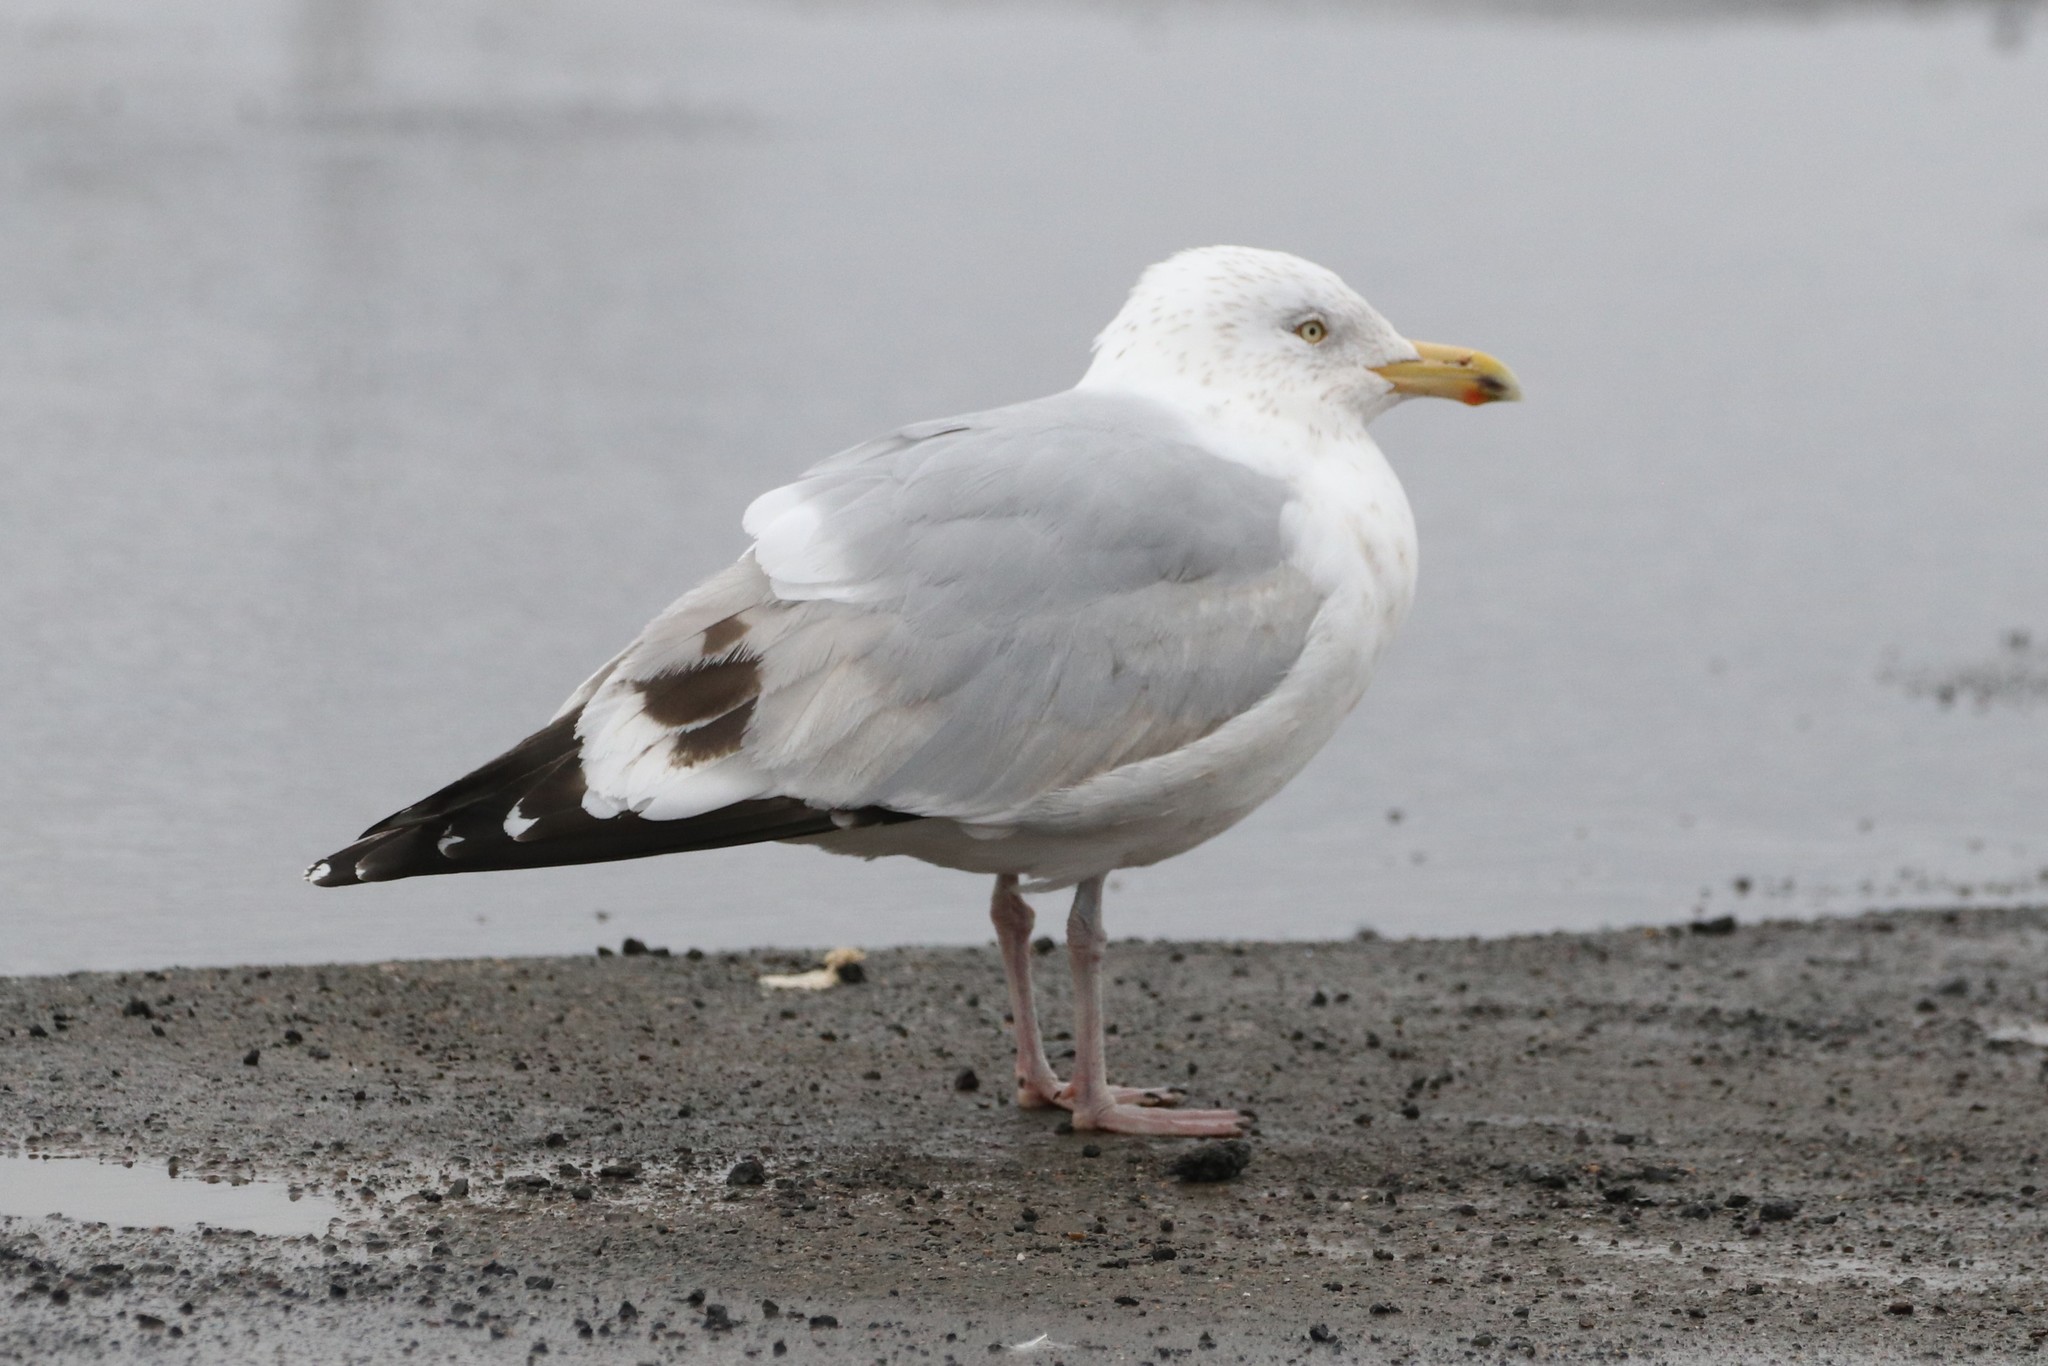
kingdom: Animalia
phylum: Chordata
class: Aves
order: Charadriiformes
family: Laridae
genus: Larus
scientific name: Larus argentatus
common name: Herring gull
